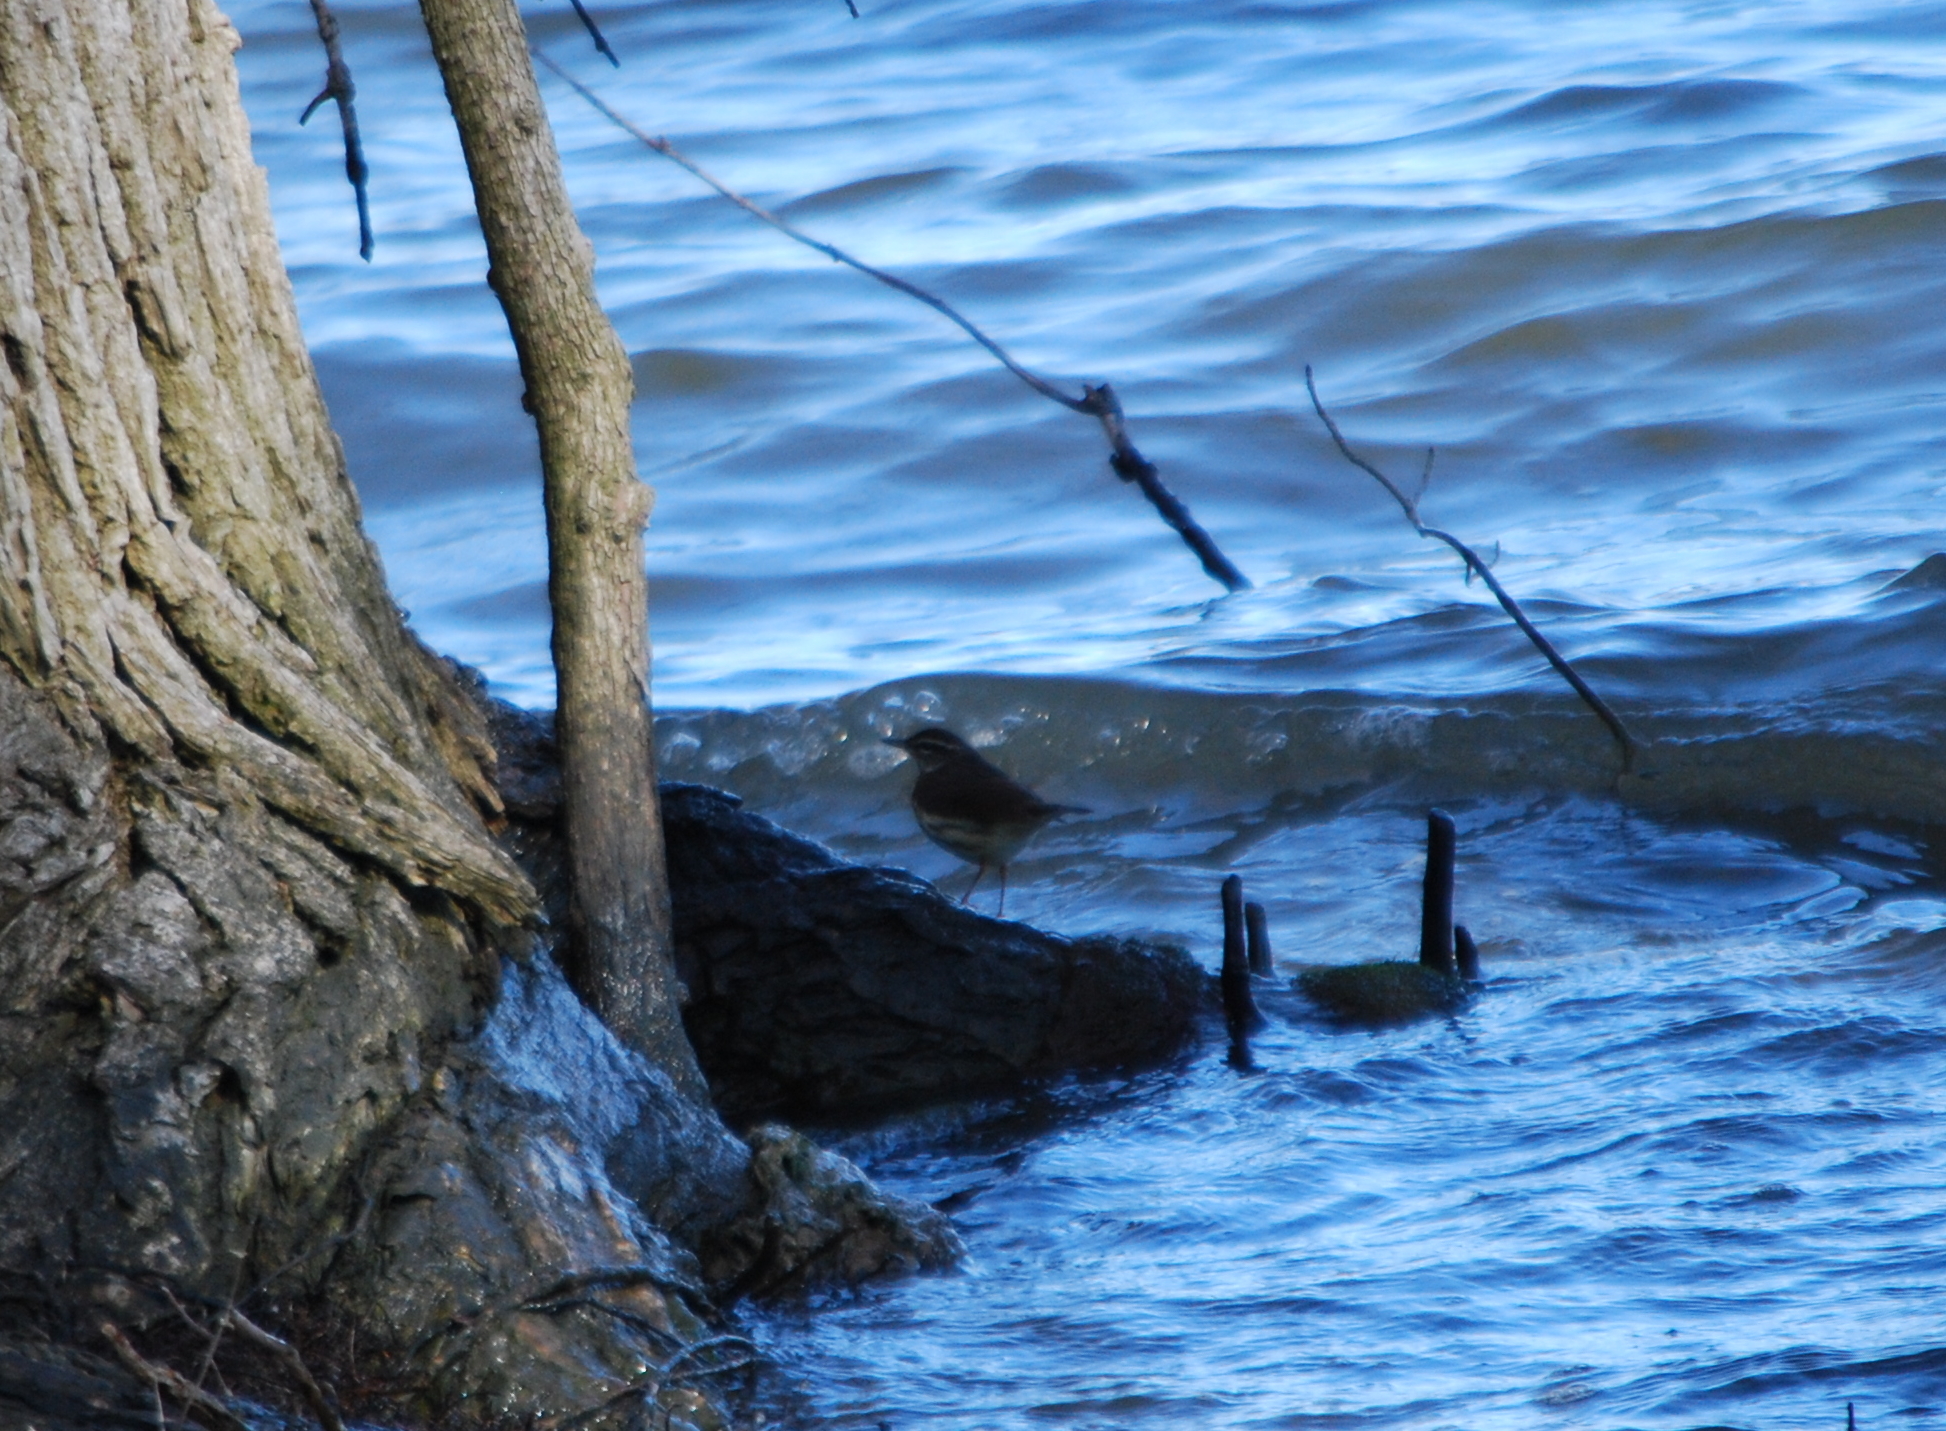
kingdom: Animalia
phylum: Chordata
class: Aves
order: Passeriformes
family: Parulidae
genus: Parkesia
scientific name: Parkesia motacilla
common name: Louisiana waterthrush
